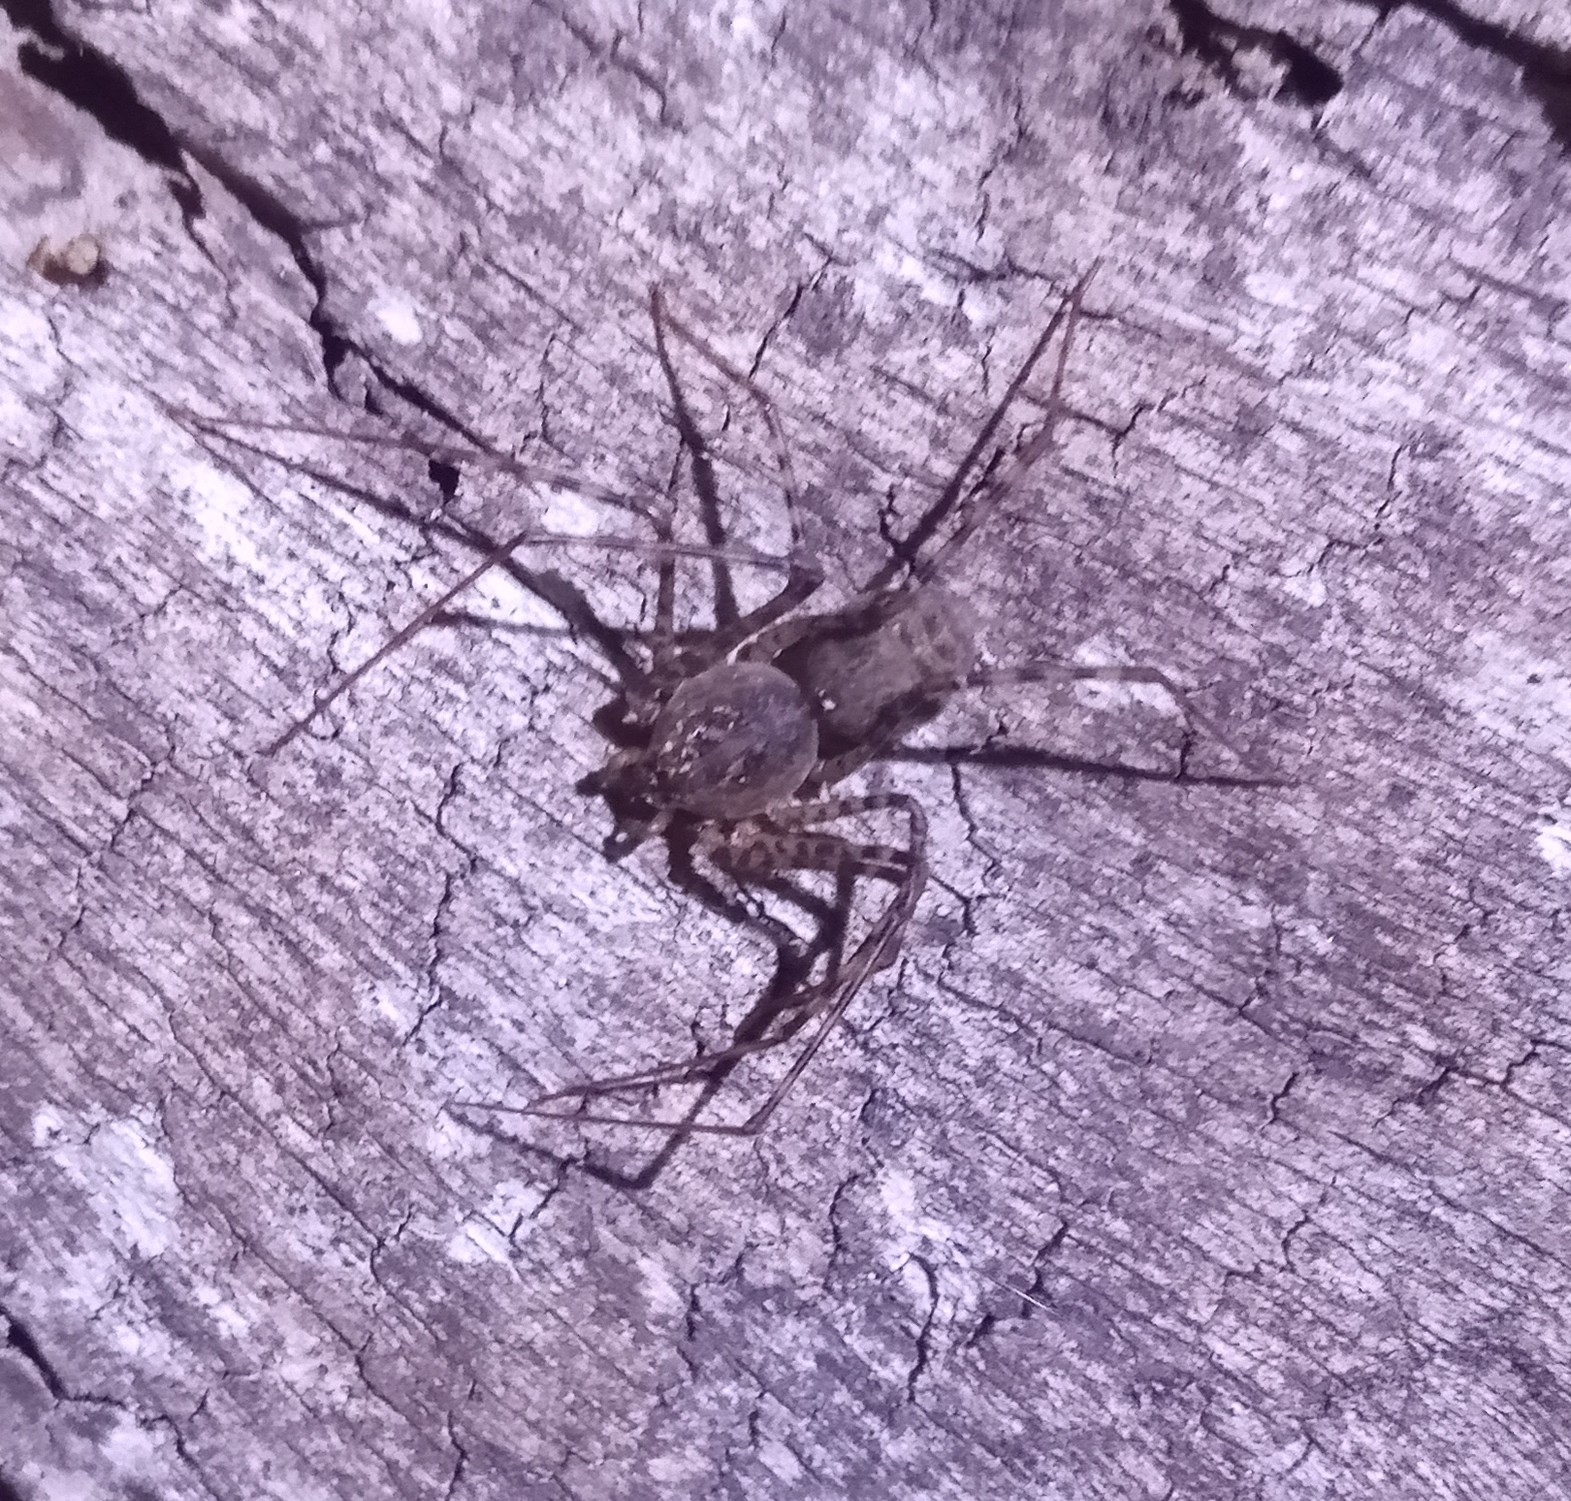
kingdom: Animalia
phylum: Arthropoda
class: Arachnida
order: Araneae
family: Scytodidae
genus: Scytodes
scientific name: Scytodes globula
